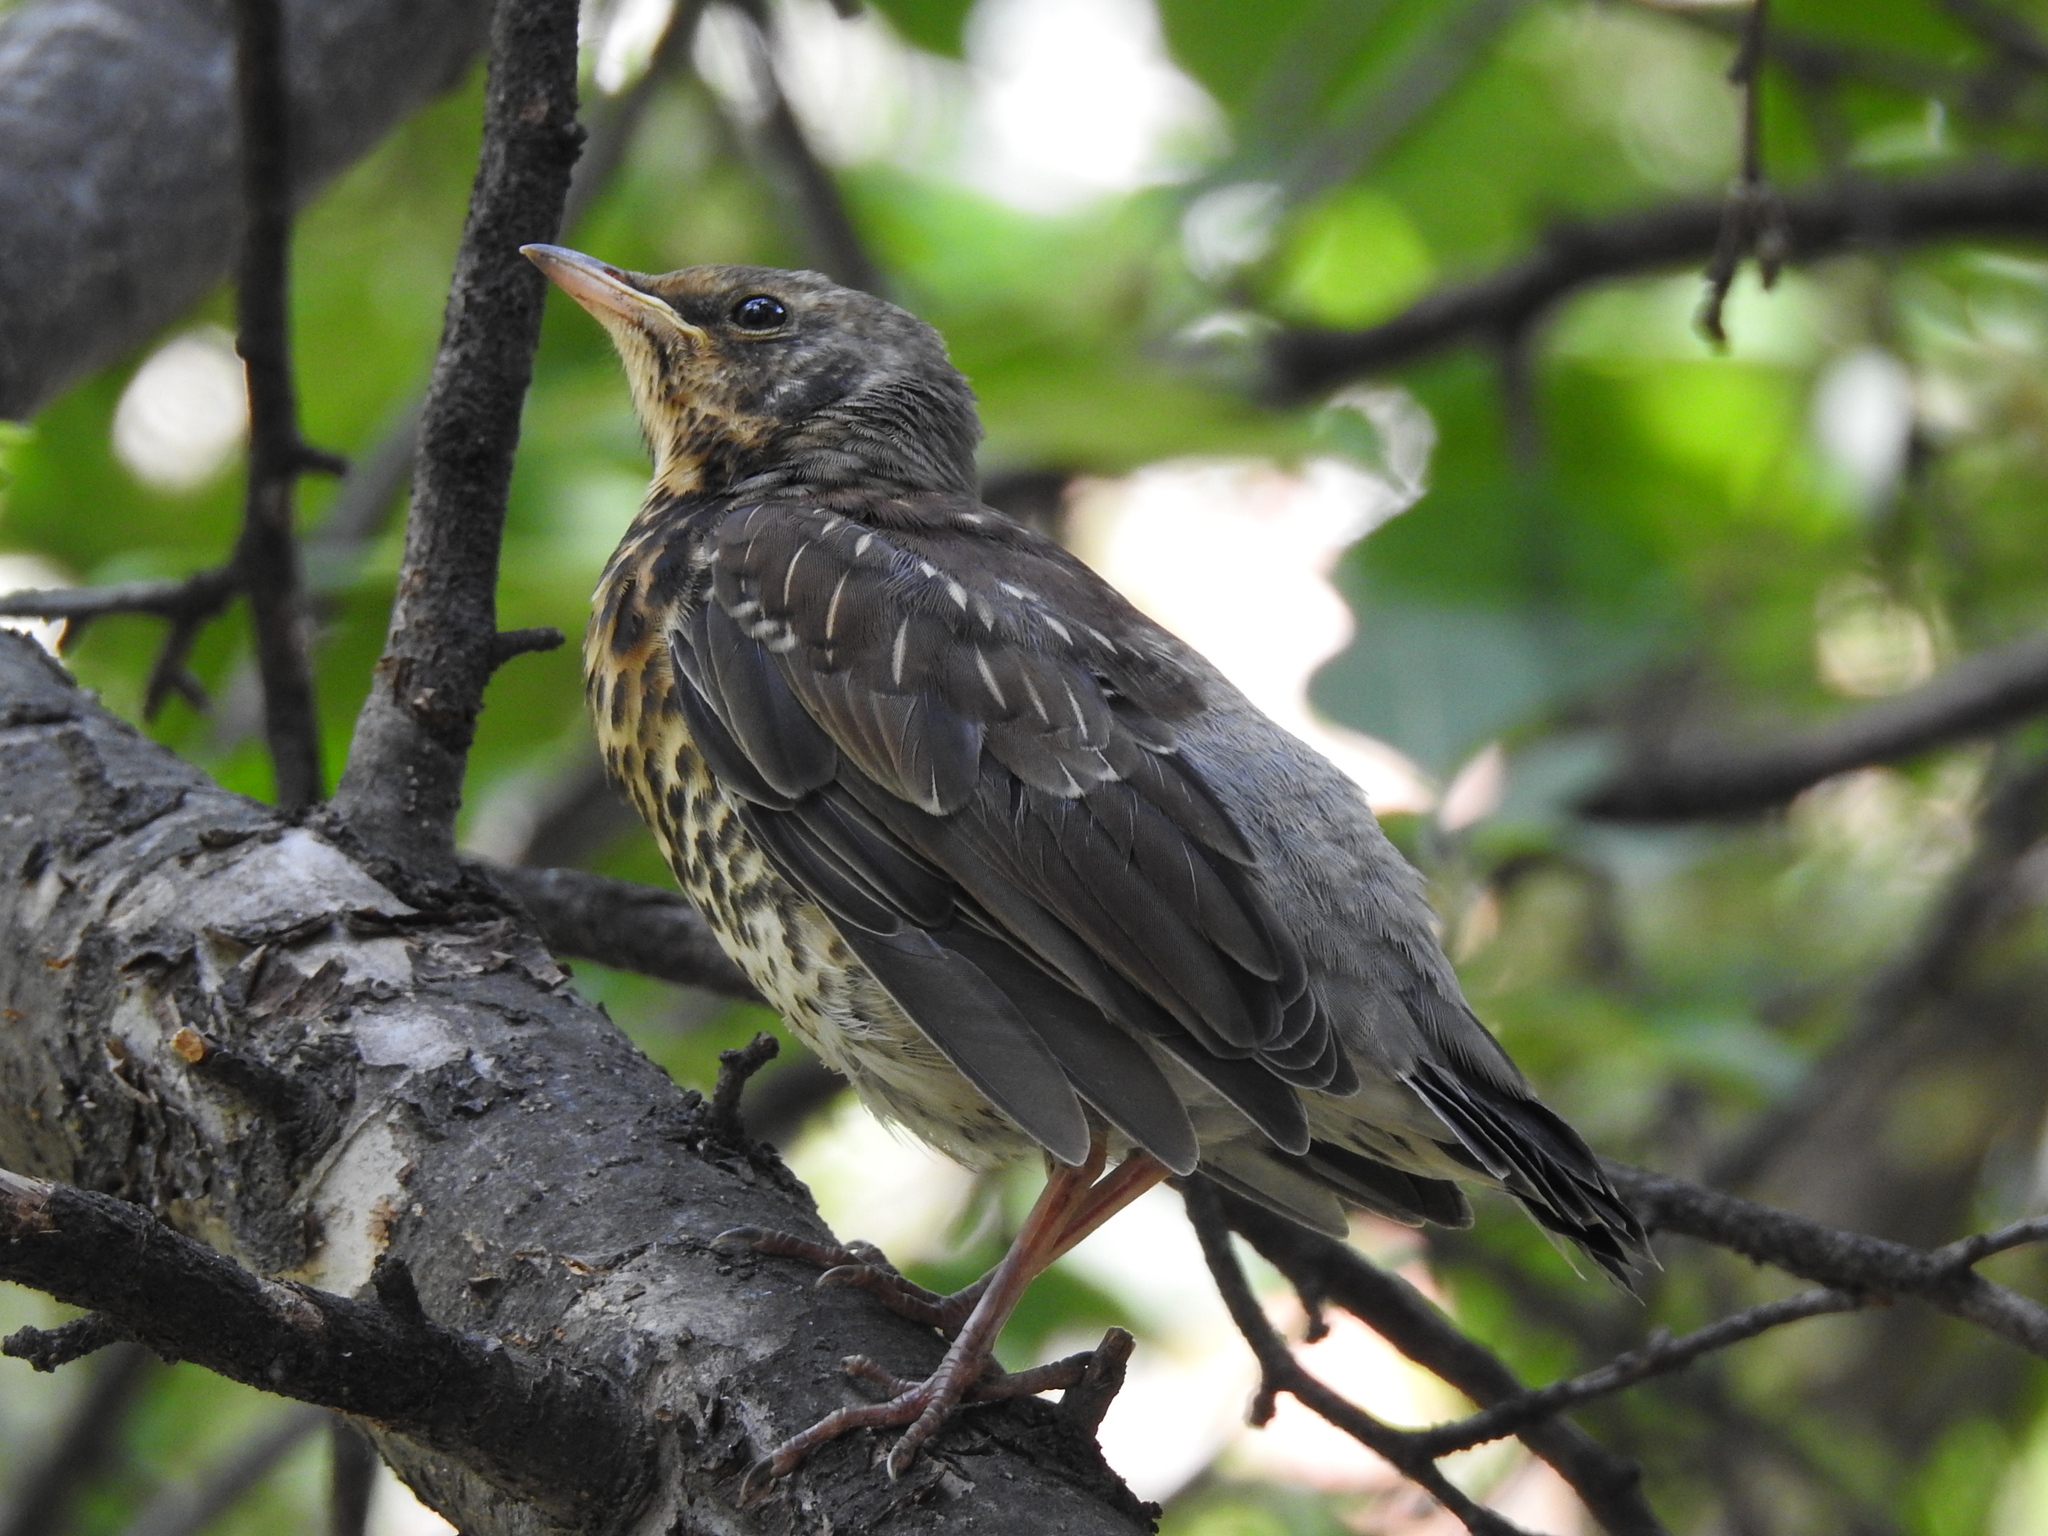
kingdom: Animalia
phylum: Chordata
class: Aves
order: Passeriformes
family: Turdidae
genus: Turdus
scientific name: Turdus pilaris
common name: Fieldfare
